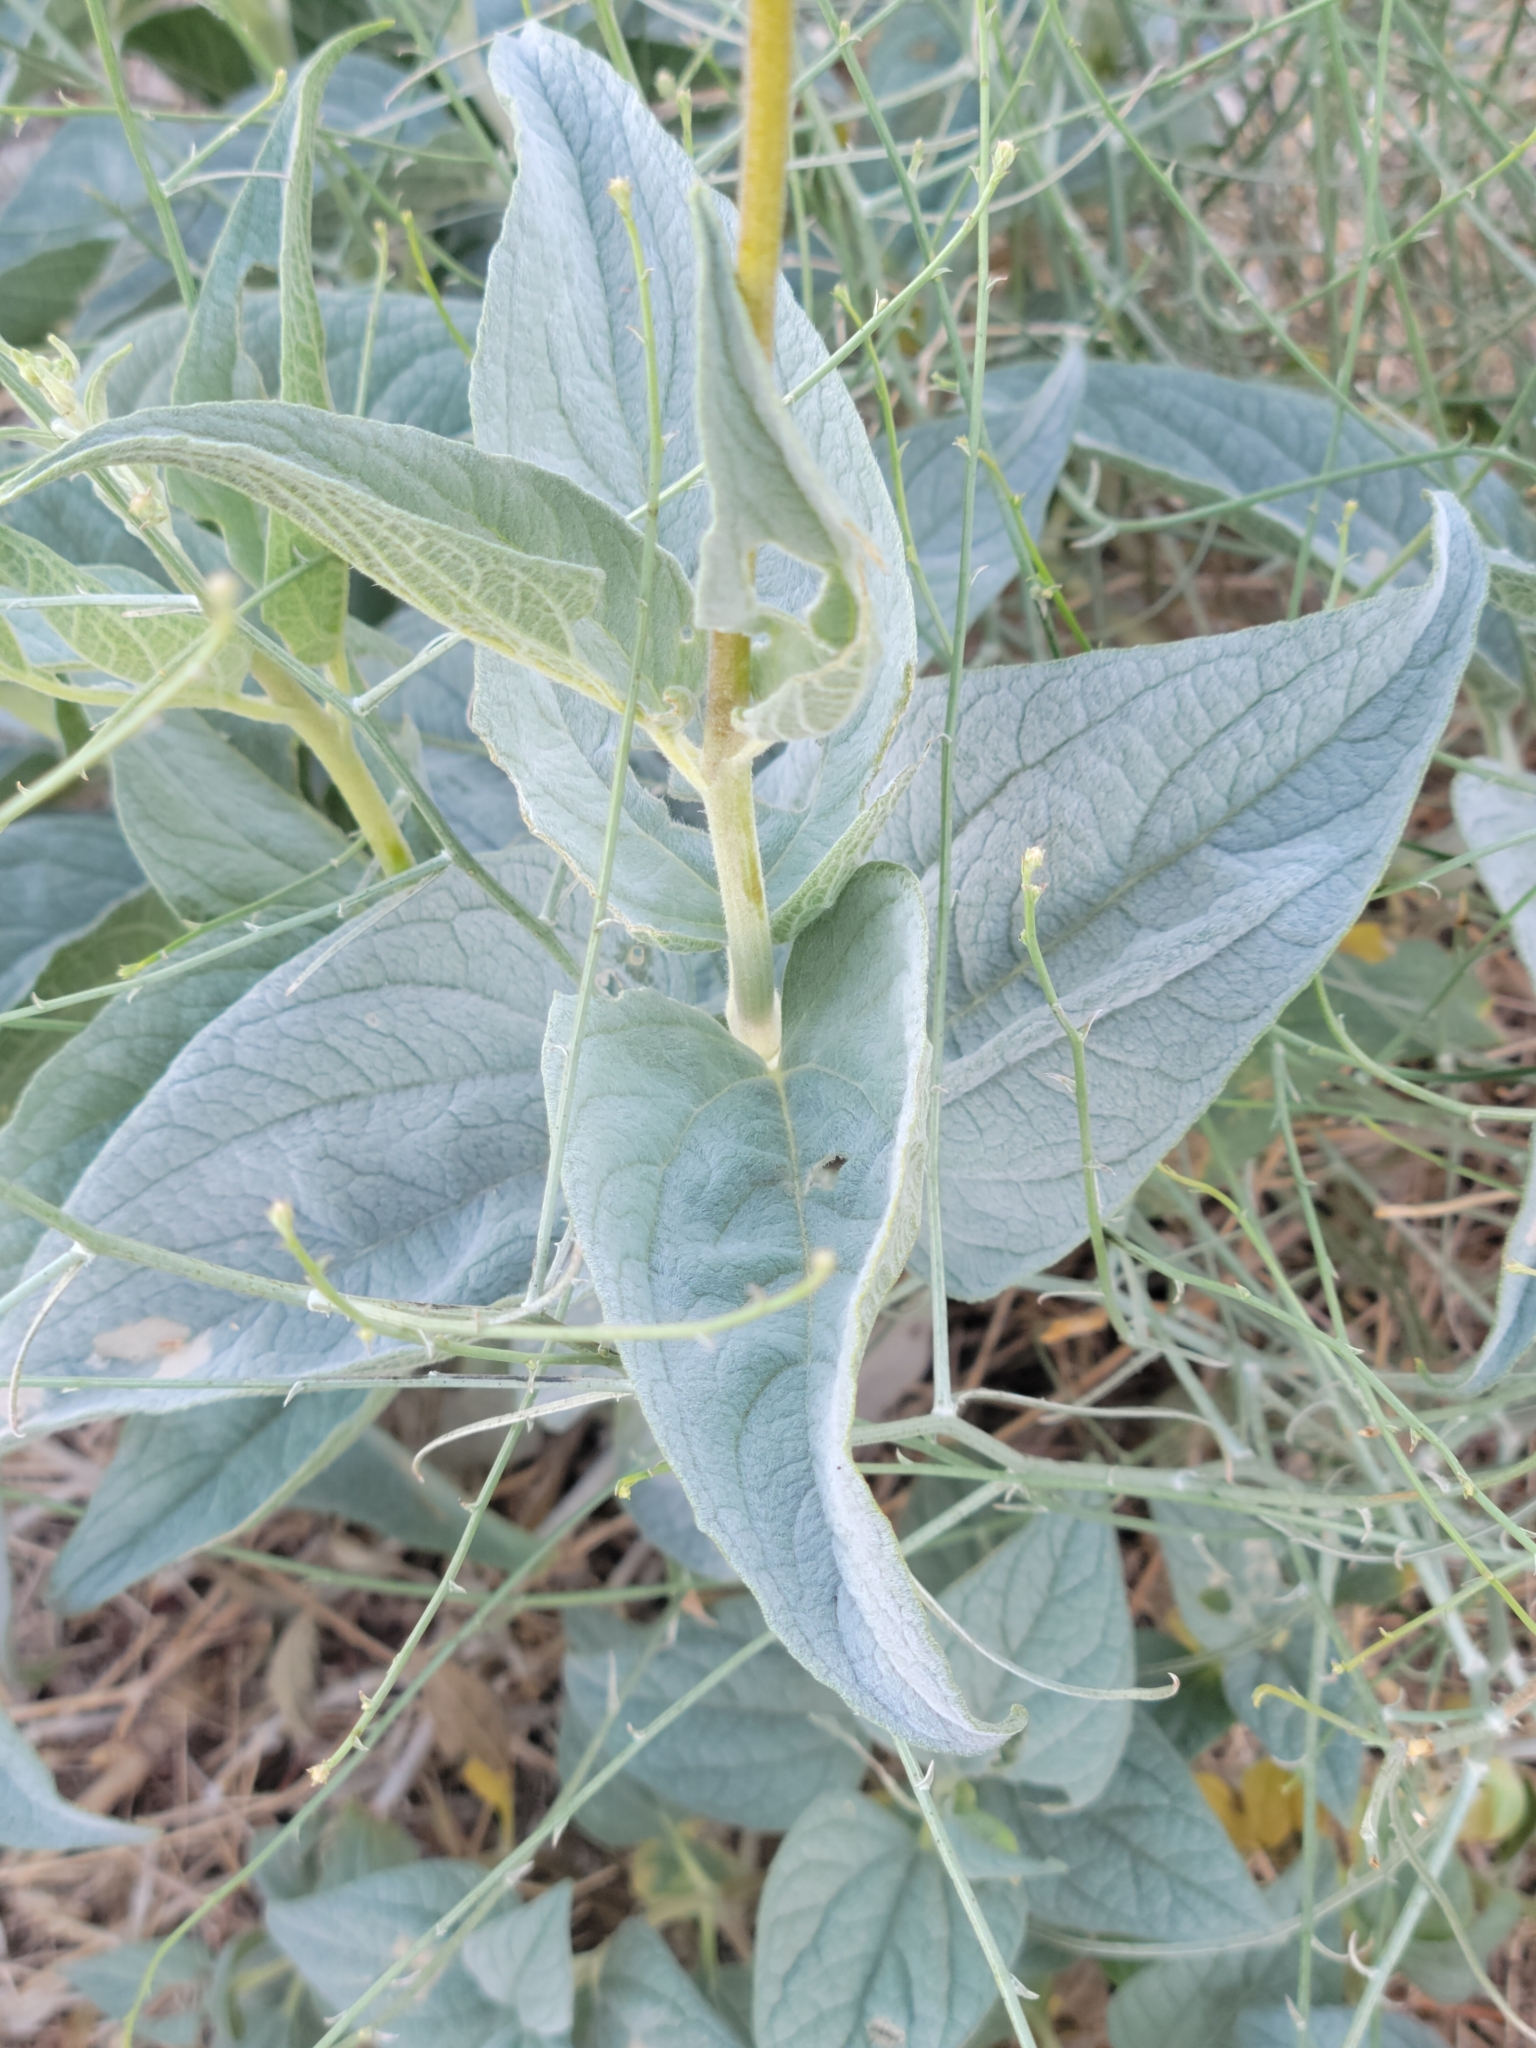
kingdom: Plantae
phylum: Tracheophyta
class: Magnoliopsida
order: Asterales
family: Asteraceae
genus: Bahiopsis
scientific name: Bahiopsis reticulata
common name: Death valley goldeneye
